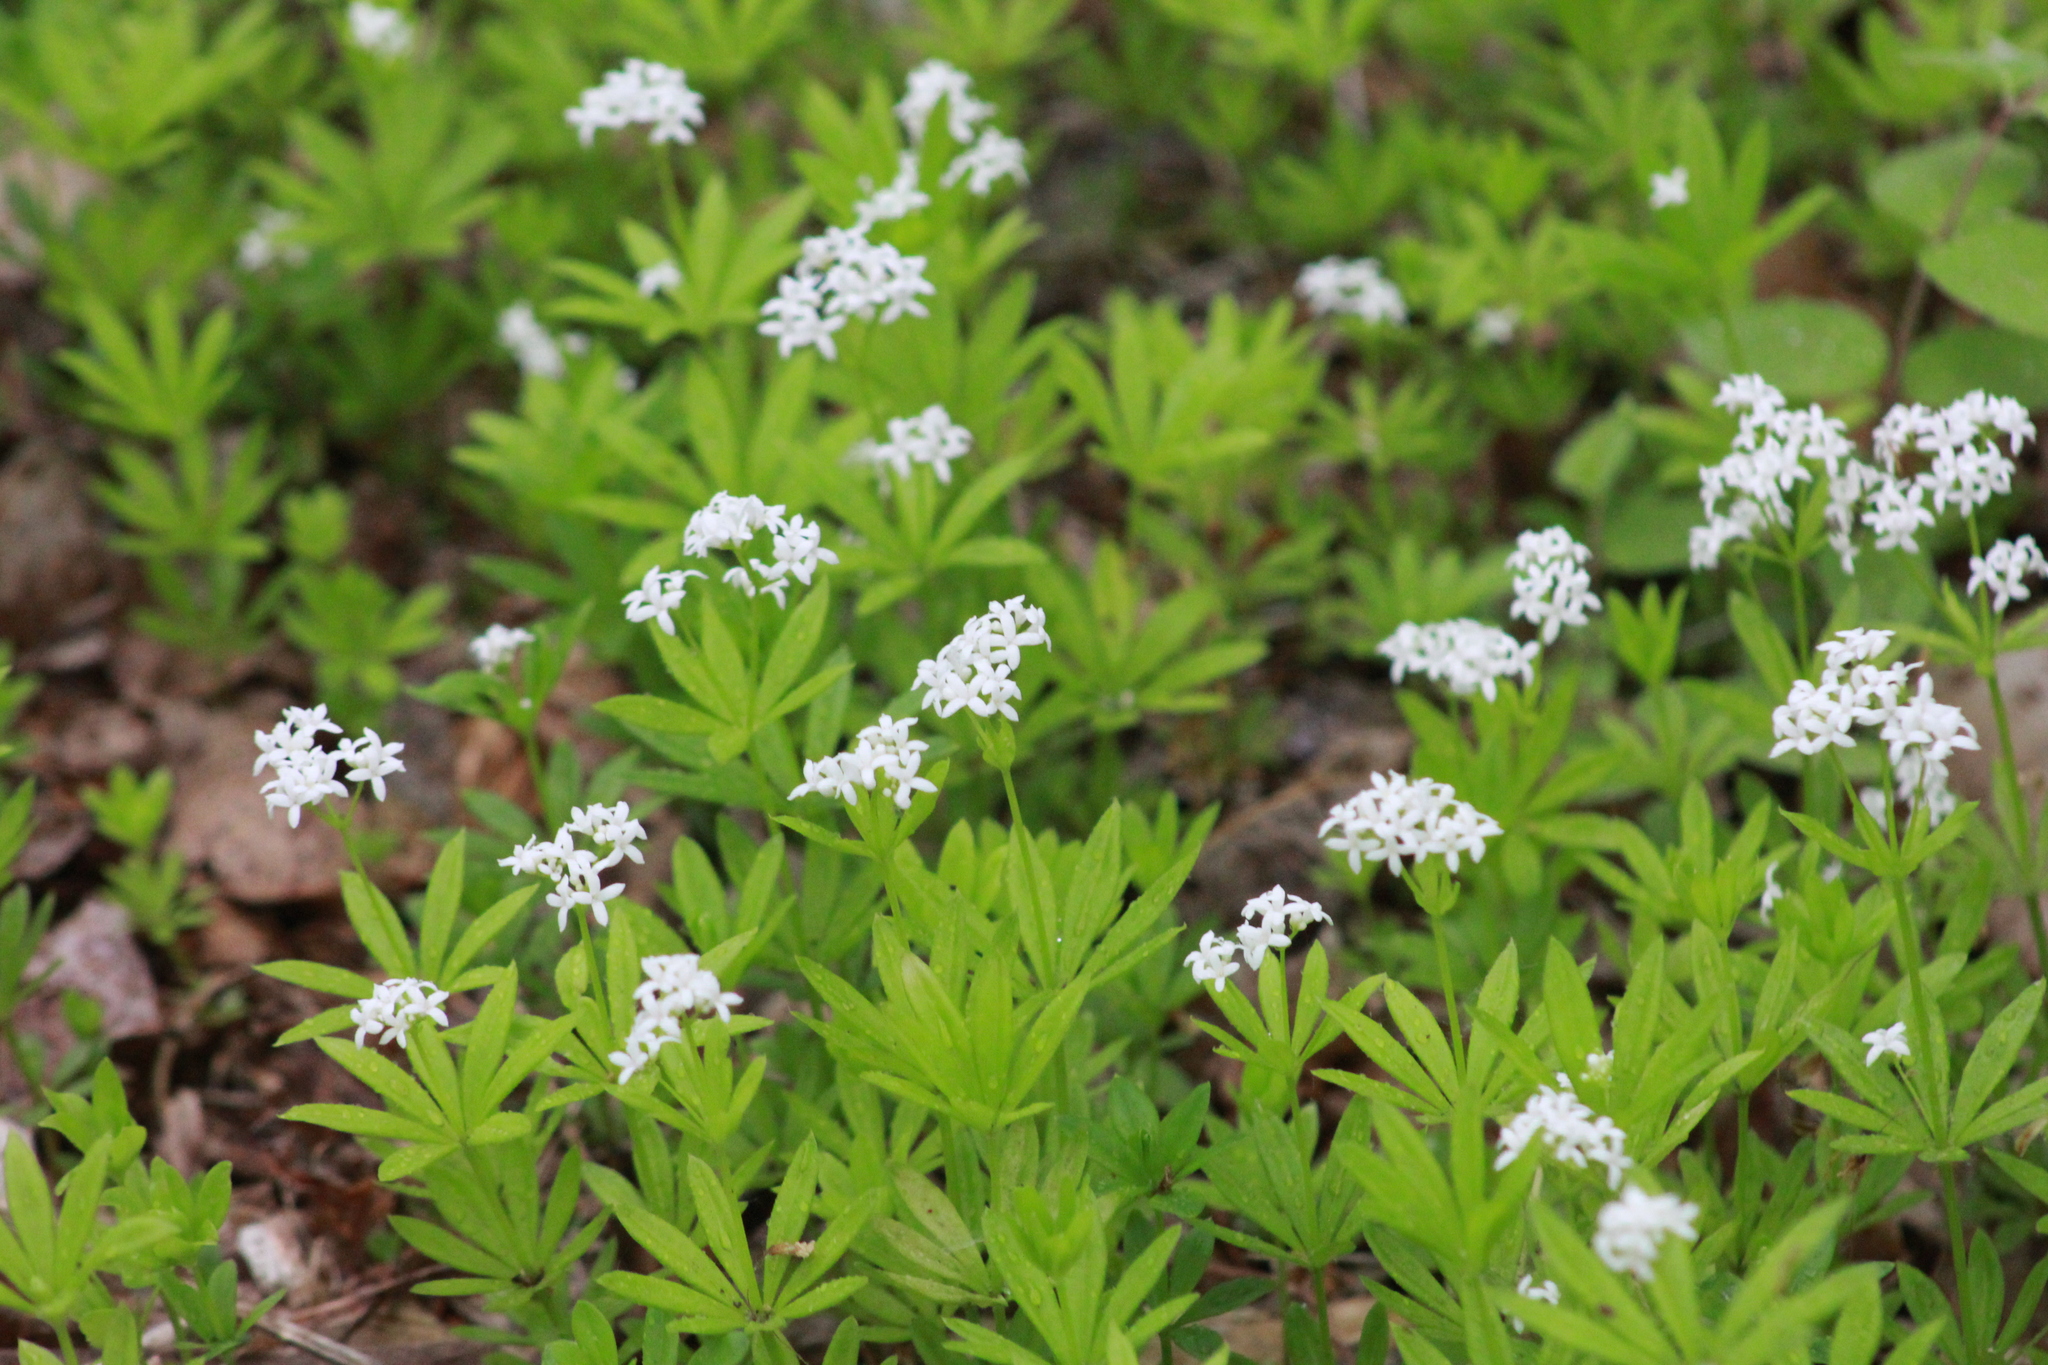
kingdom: Plantae
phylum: Tracheophyta
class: Magnoliopsida
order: Gentianales
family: Rubiaceae
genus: Galium
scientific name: Galium odoratum
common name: Sweet woodruff
